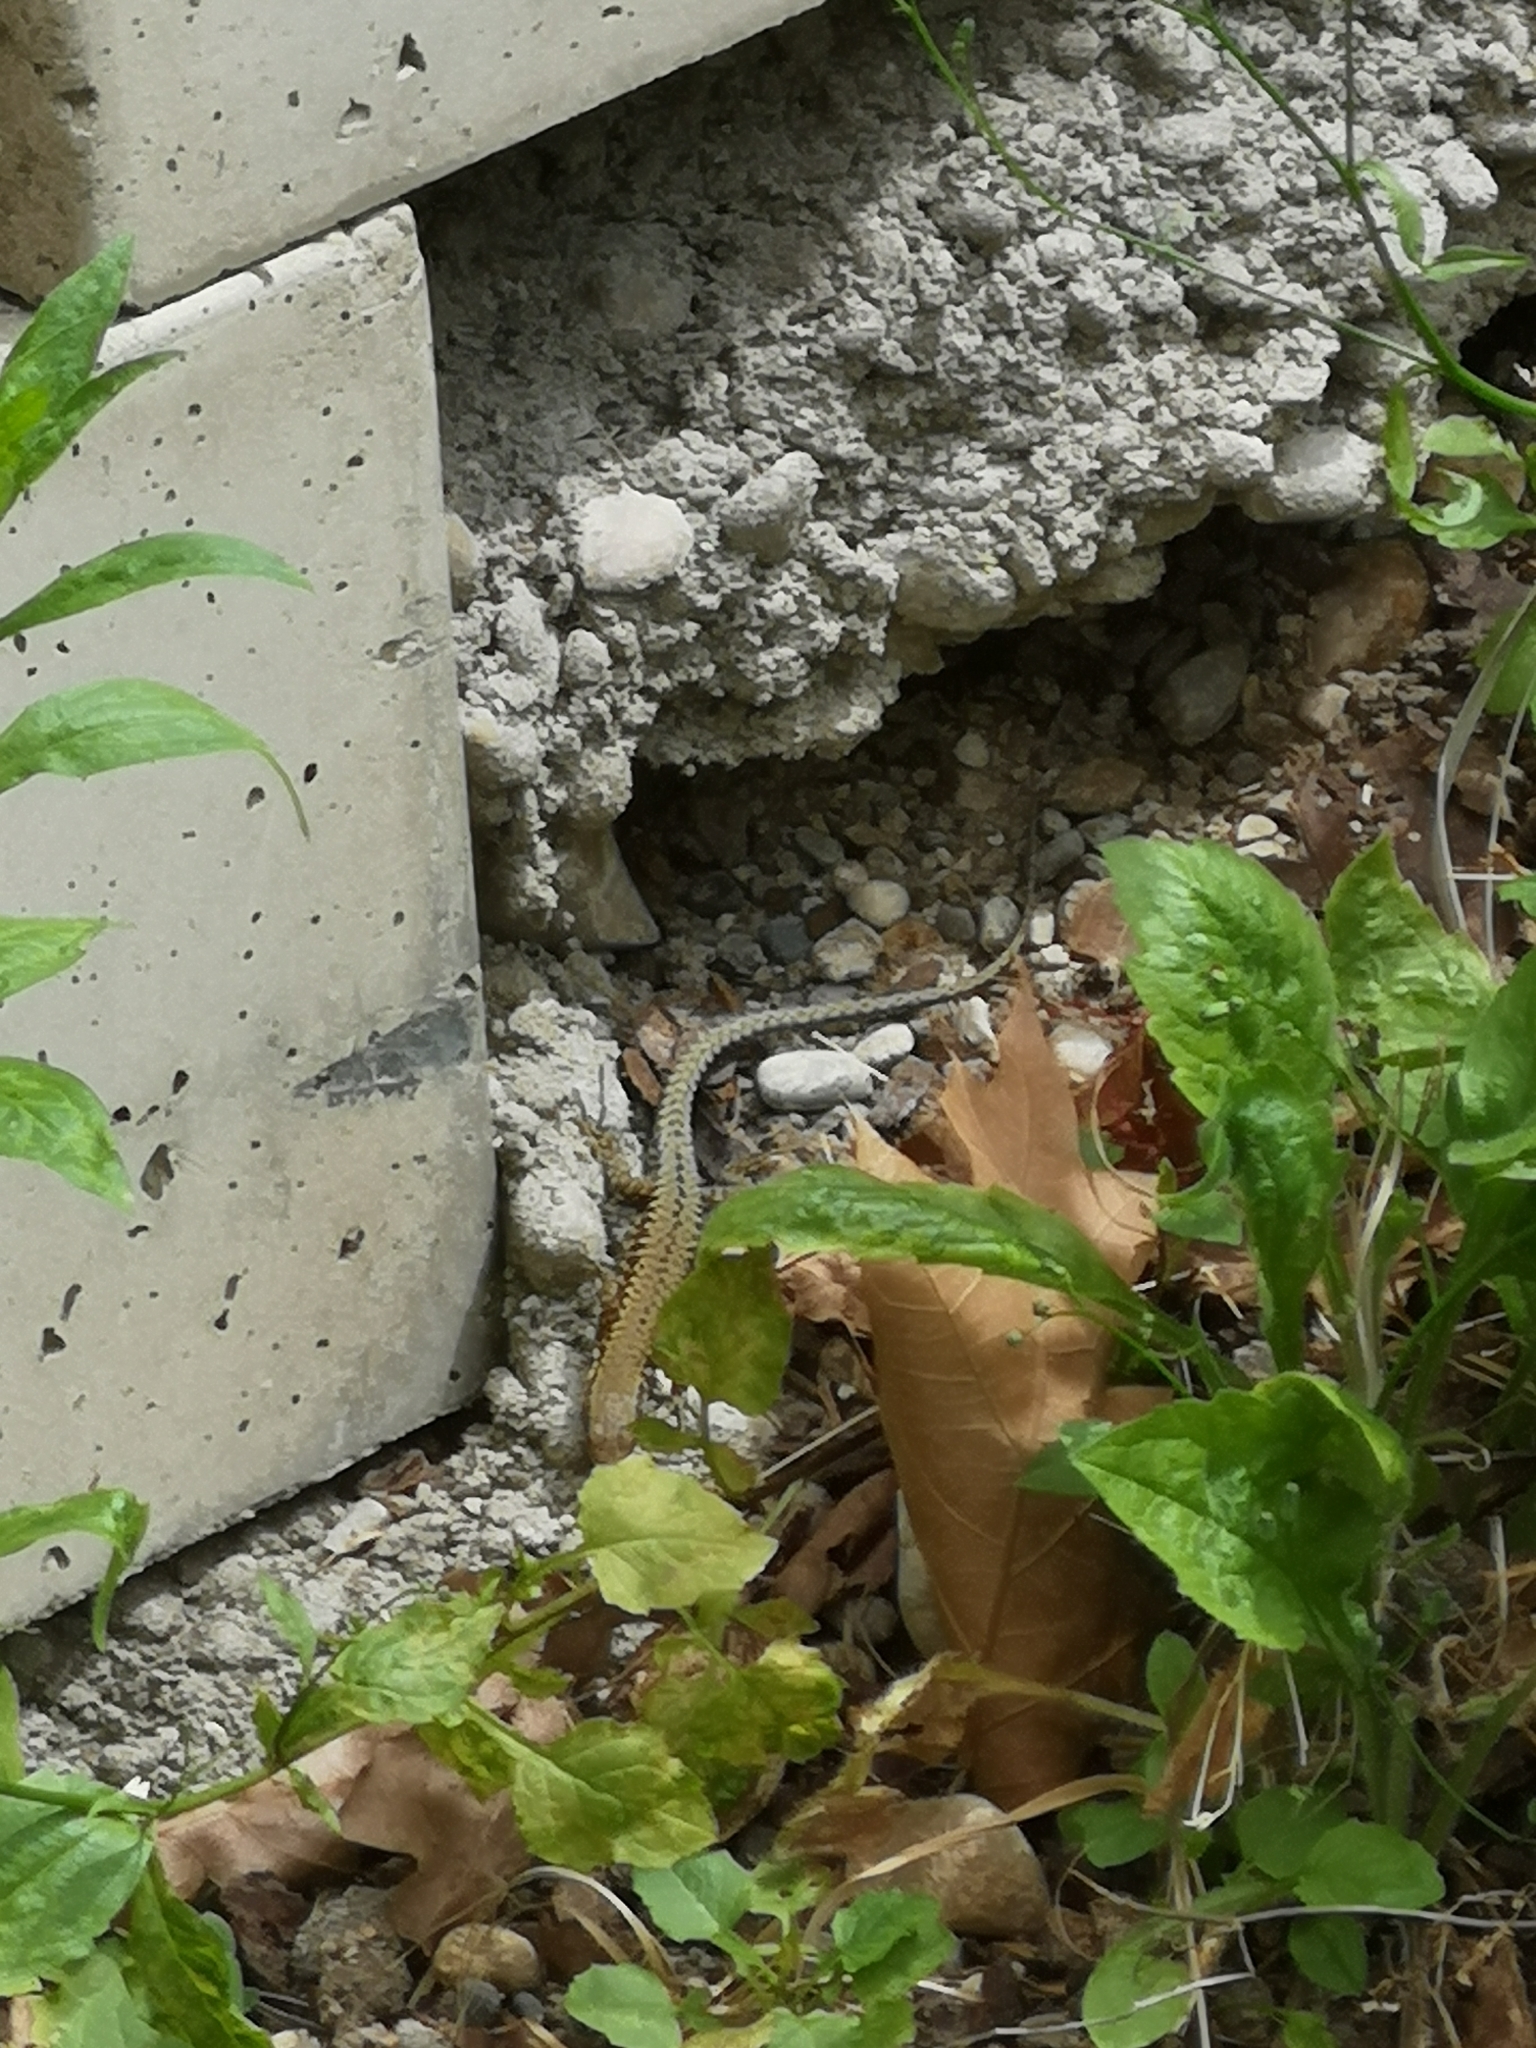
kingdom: Animalia
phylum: Chordata
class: Squamata
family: Lacertidae
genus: Podarcis
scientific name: Podarcis muralis
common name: Common wall lizard
